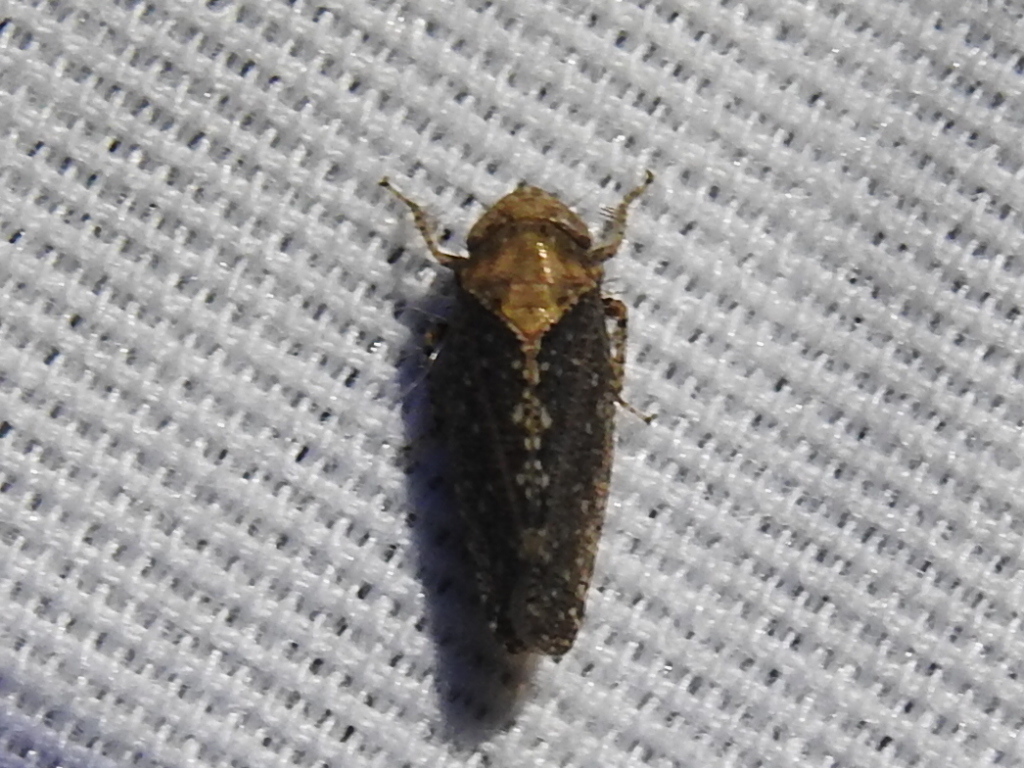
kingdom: Animalia
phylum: Arthropoda
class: Insecta
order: Hemiptera
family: Cicadellidae
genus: Excultanus
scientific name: Excultanus excultus
